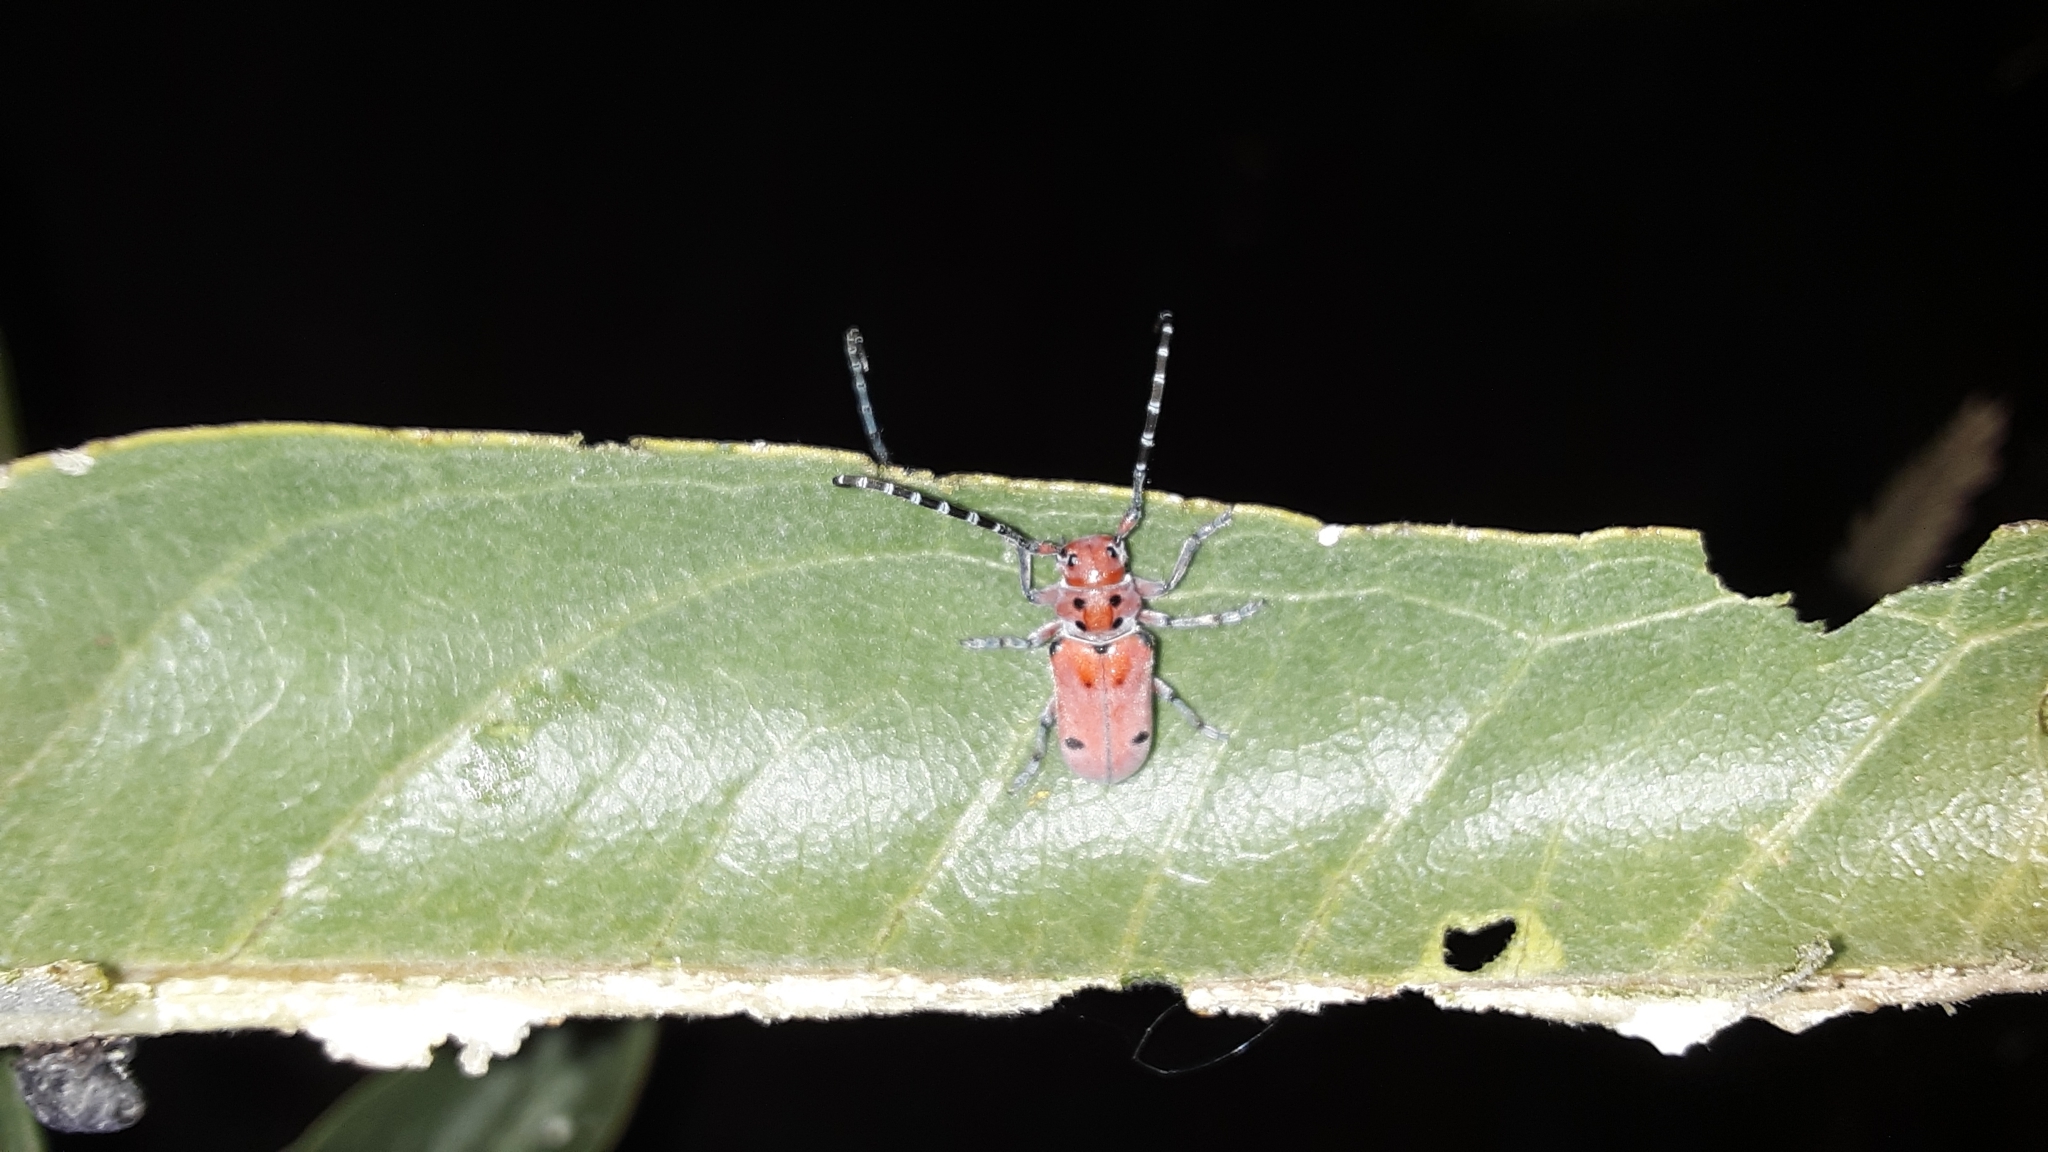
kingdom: Animalia
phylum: Arthropoda
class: Insecta
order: Coleoptera
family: Cerambycidae
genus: Tetraopes
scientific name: Tetraopes femoratus
